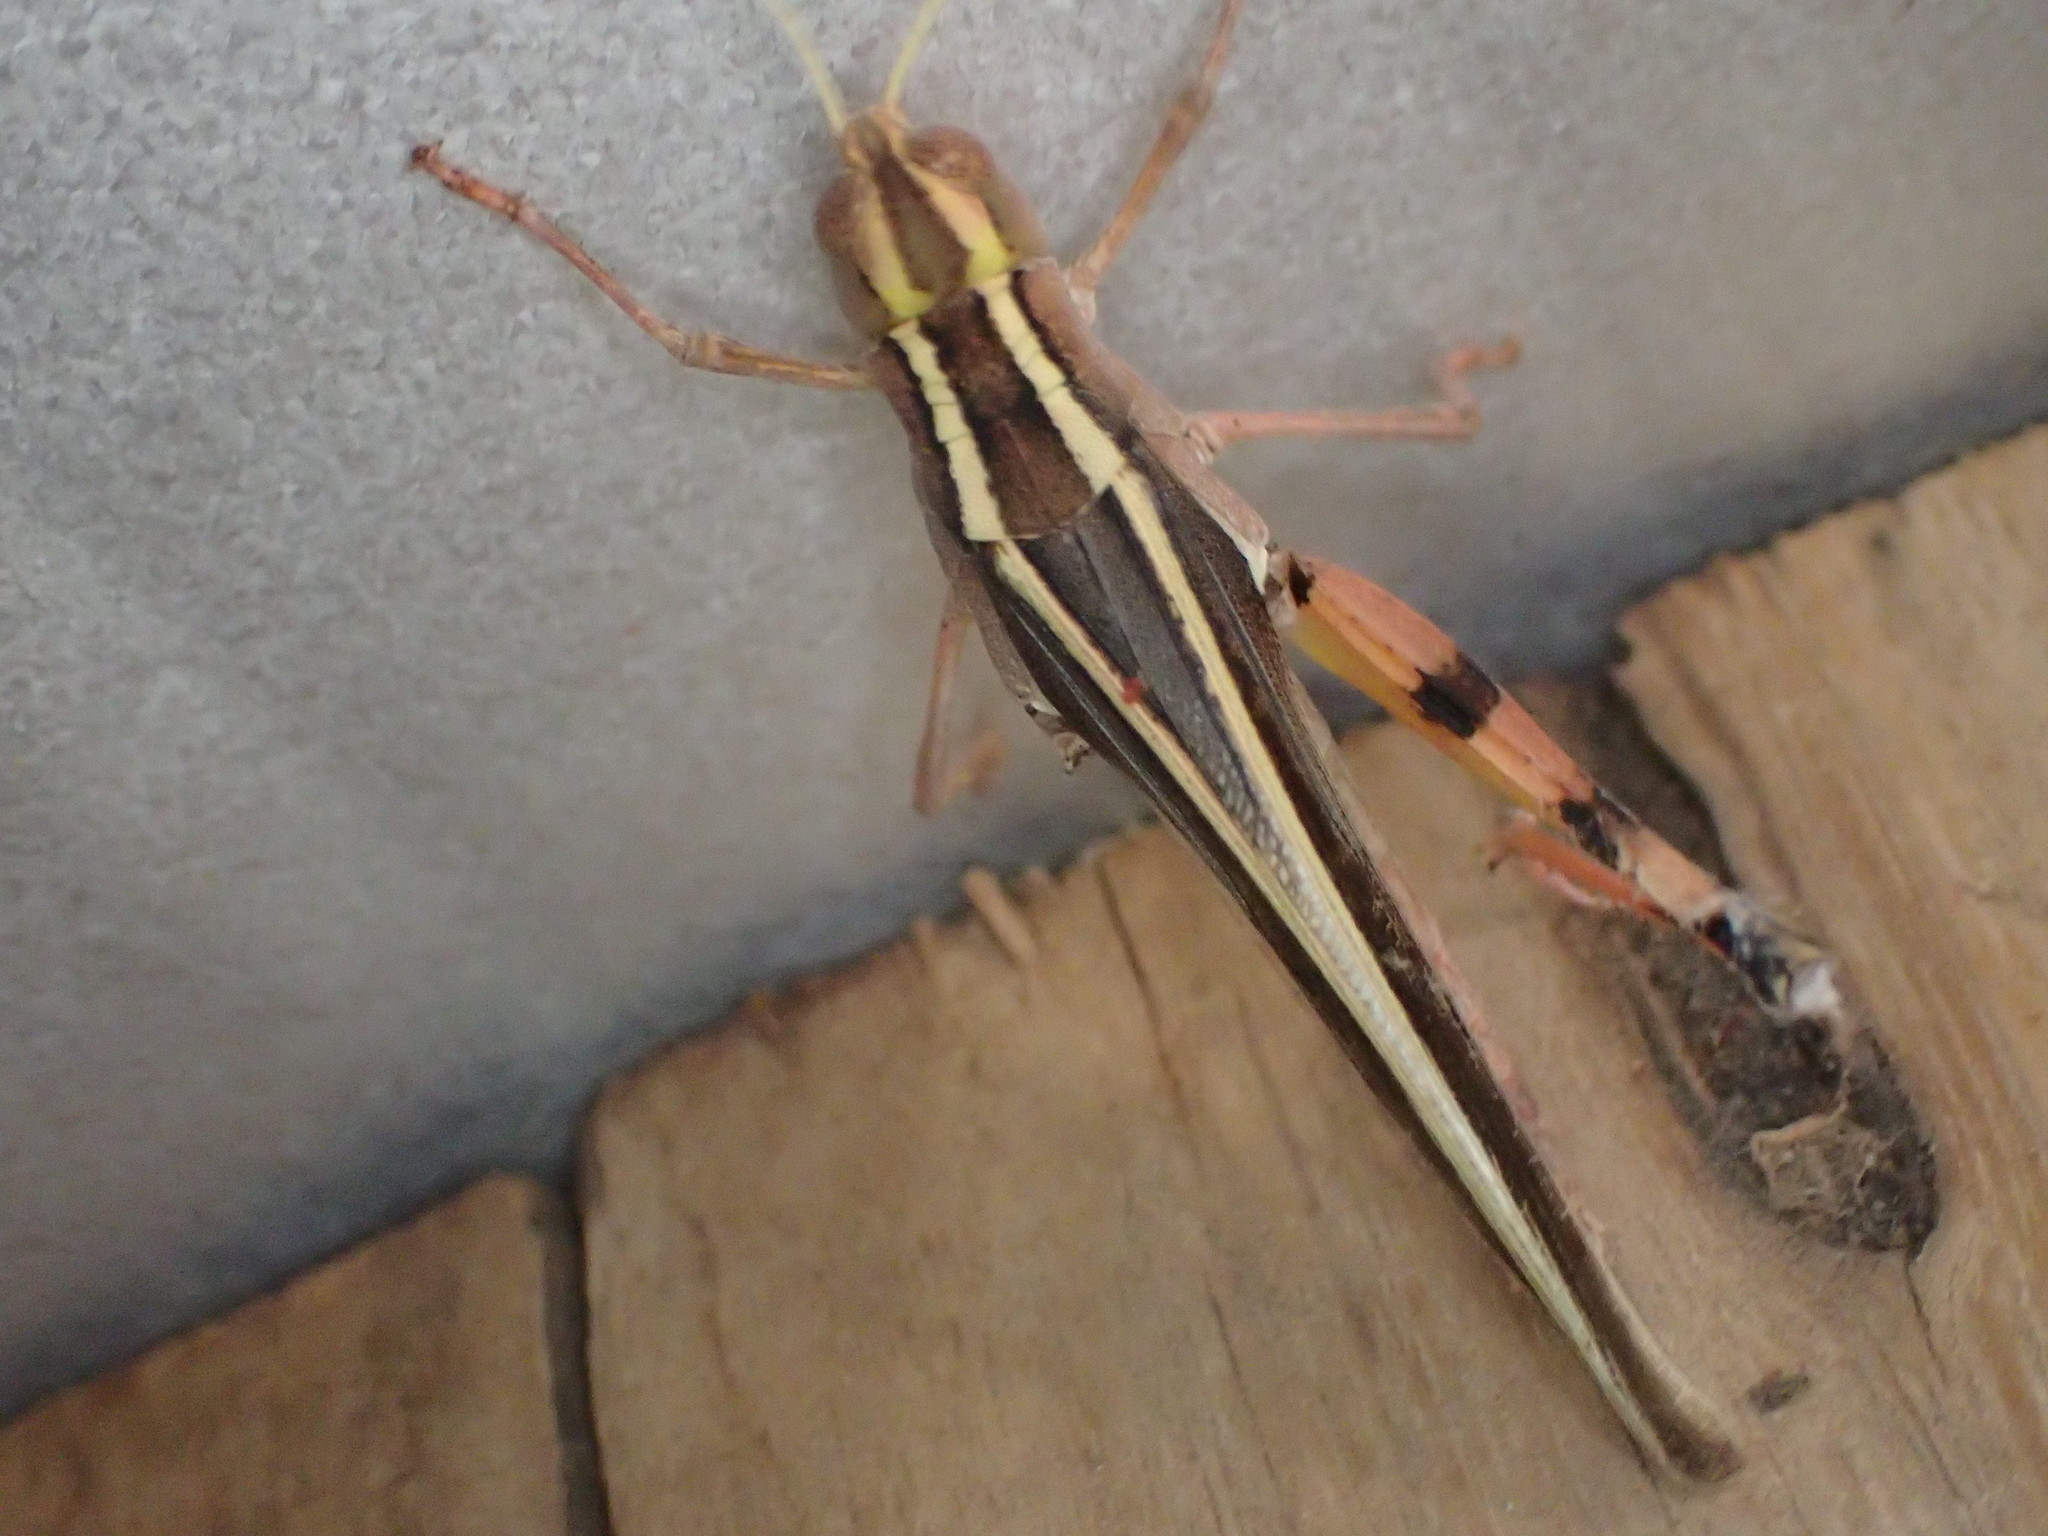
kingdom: Animalia
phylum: Arthropoda
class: Insecta
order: Orthoptera
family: Acrididae
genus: Macrocara
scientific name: Macrocara conglobata
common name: Rainbow grasshopper
